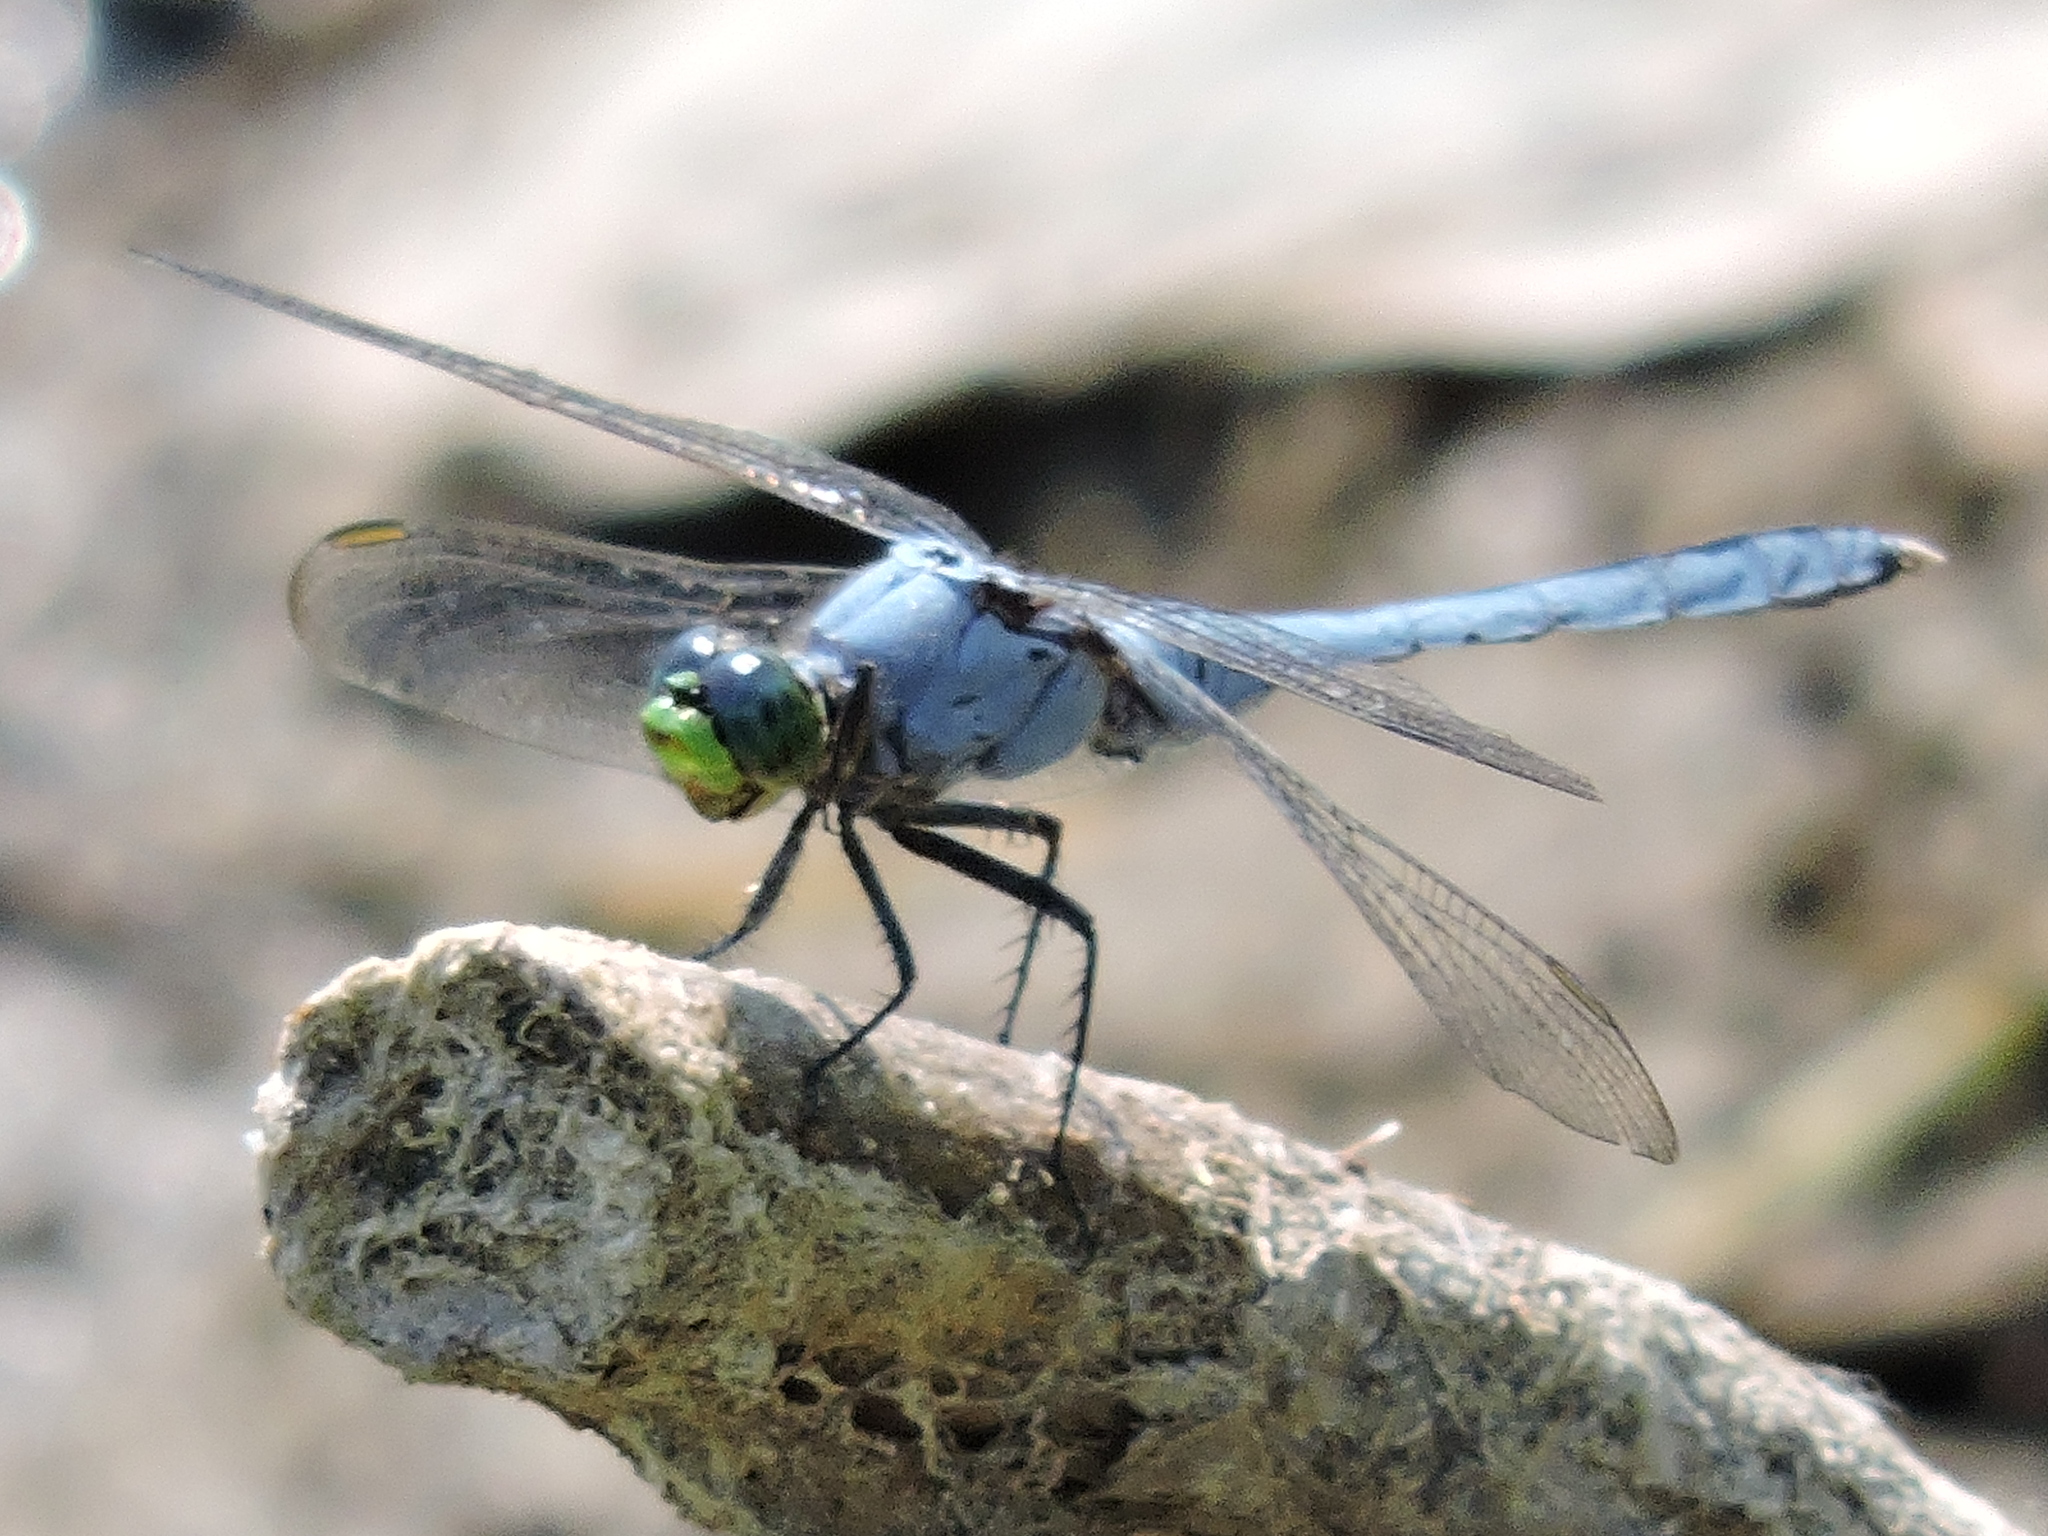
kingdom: Animalia
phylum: Arthropoda
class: Insecta
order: Odonata
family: Libellulidae
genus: Erythemis
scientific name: Erythemis simplicicollis
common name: Eastern pondhawk
